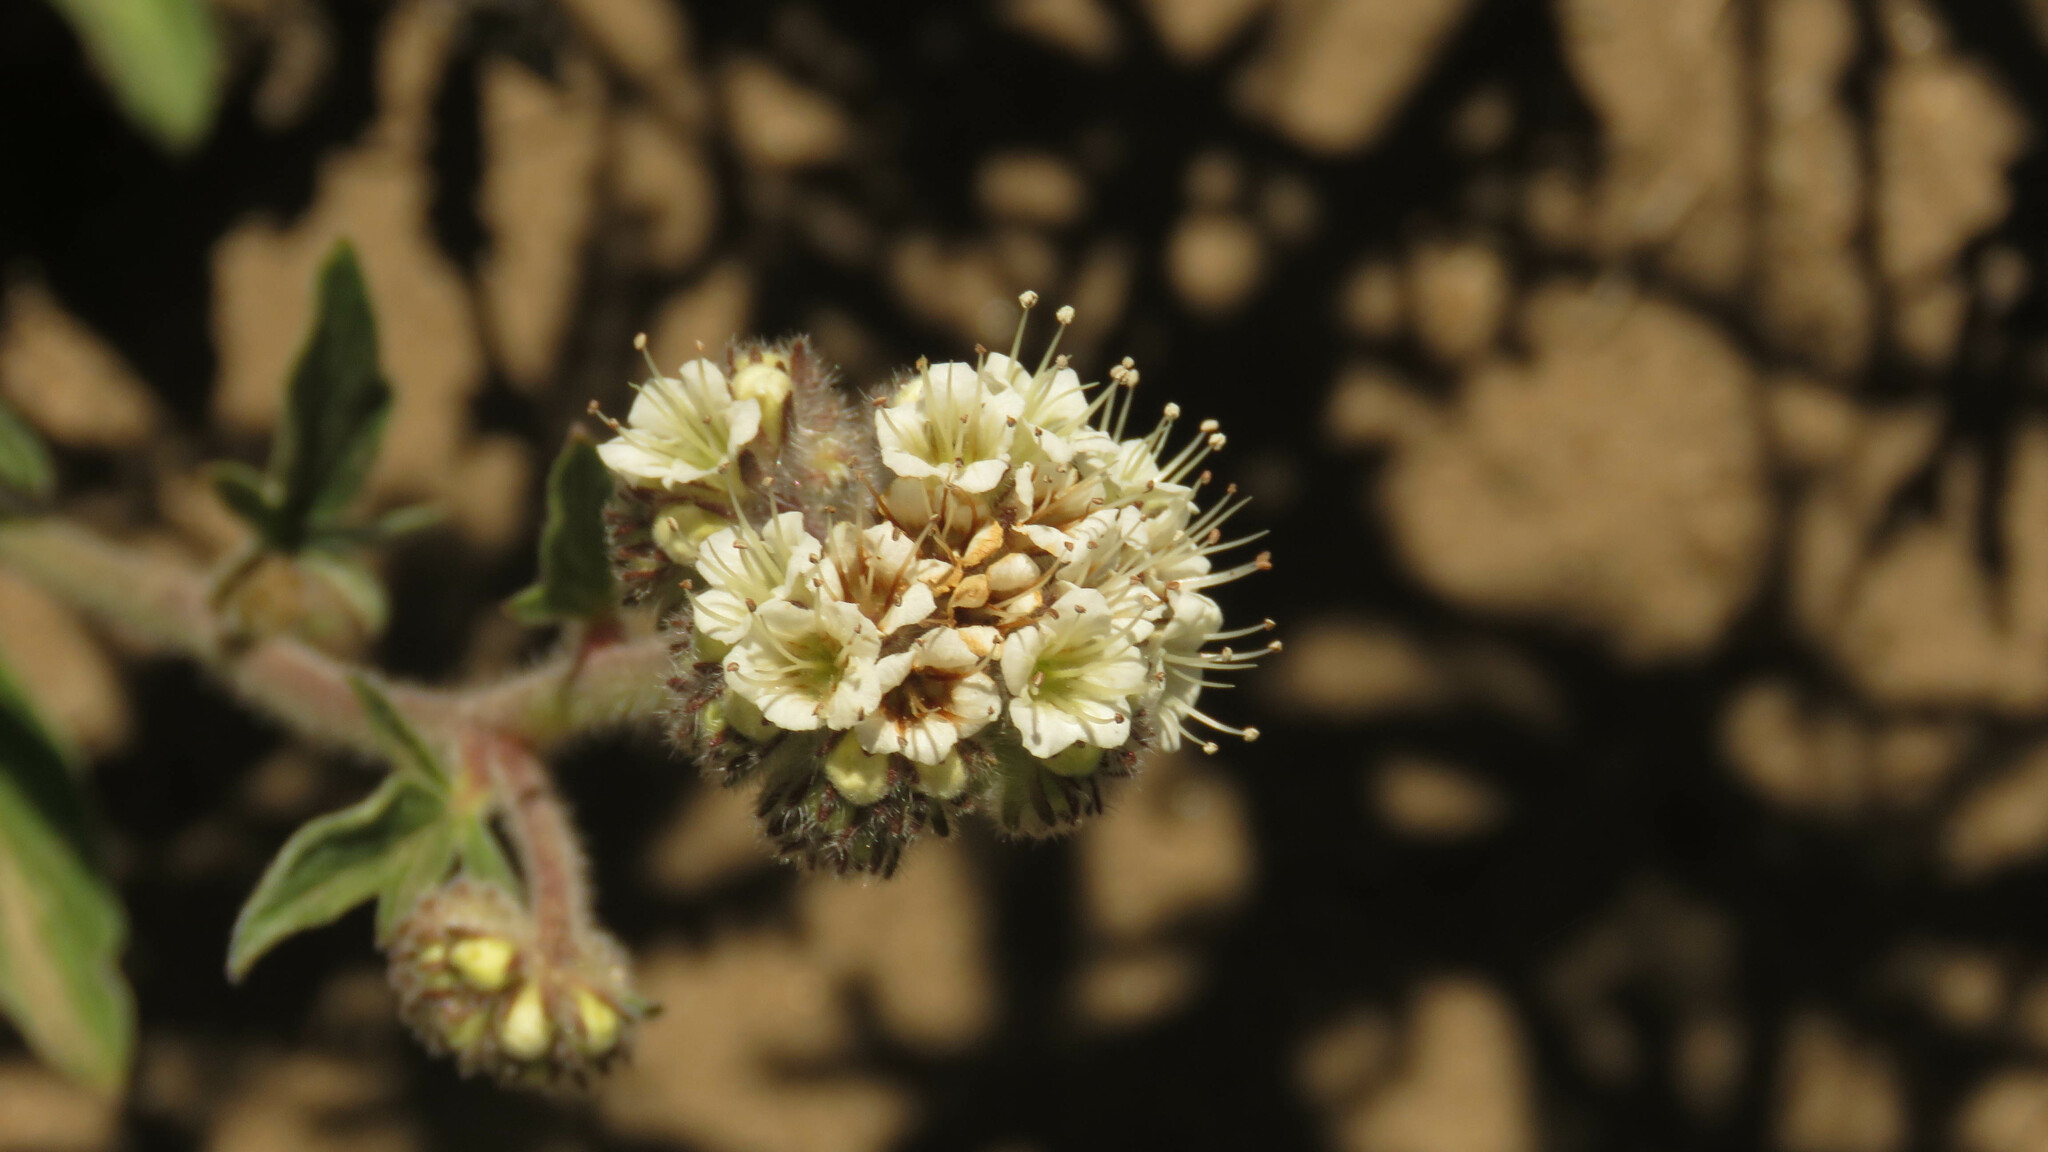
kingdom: Plantae
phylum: Tracheophyta
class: Magnoliopsida
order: Boraginales
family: Hydrophyllaceae
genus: Phacelia
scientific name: Phacelia secunda
